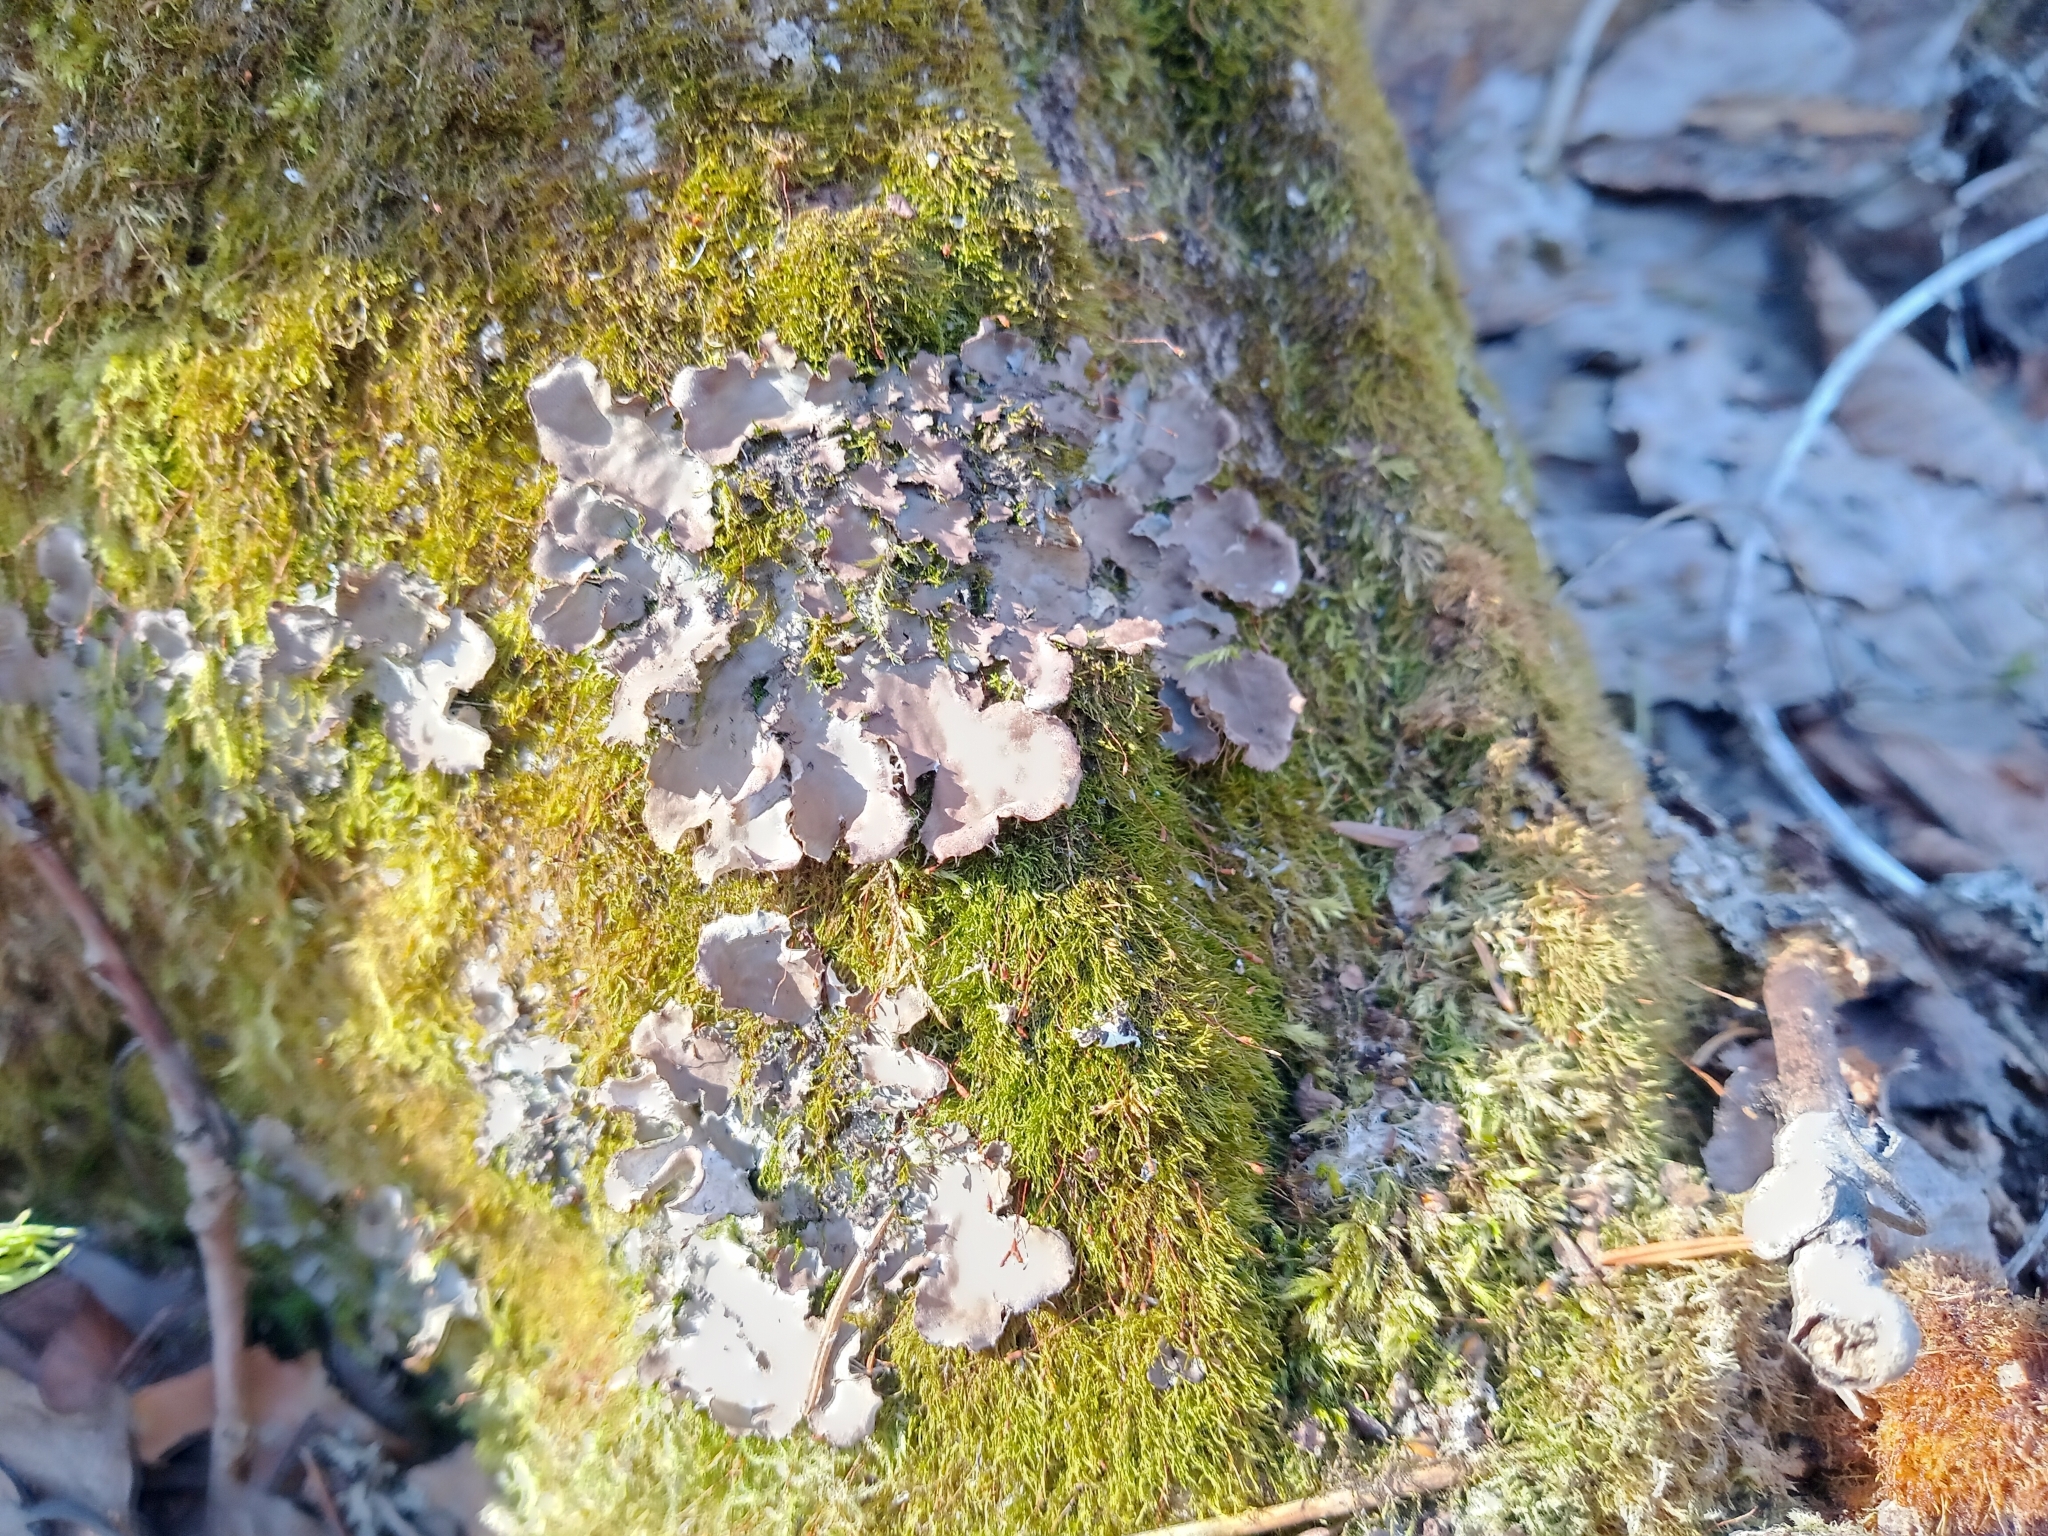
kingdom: Fungi
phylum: Ascomycota
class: Lecanoromycetes
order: Peltigerales
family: Peltigeraceae
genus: Peltigera
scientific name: Peltigera praetextata
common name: Scaly dog-lichen
